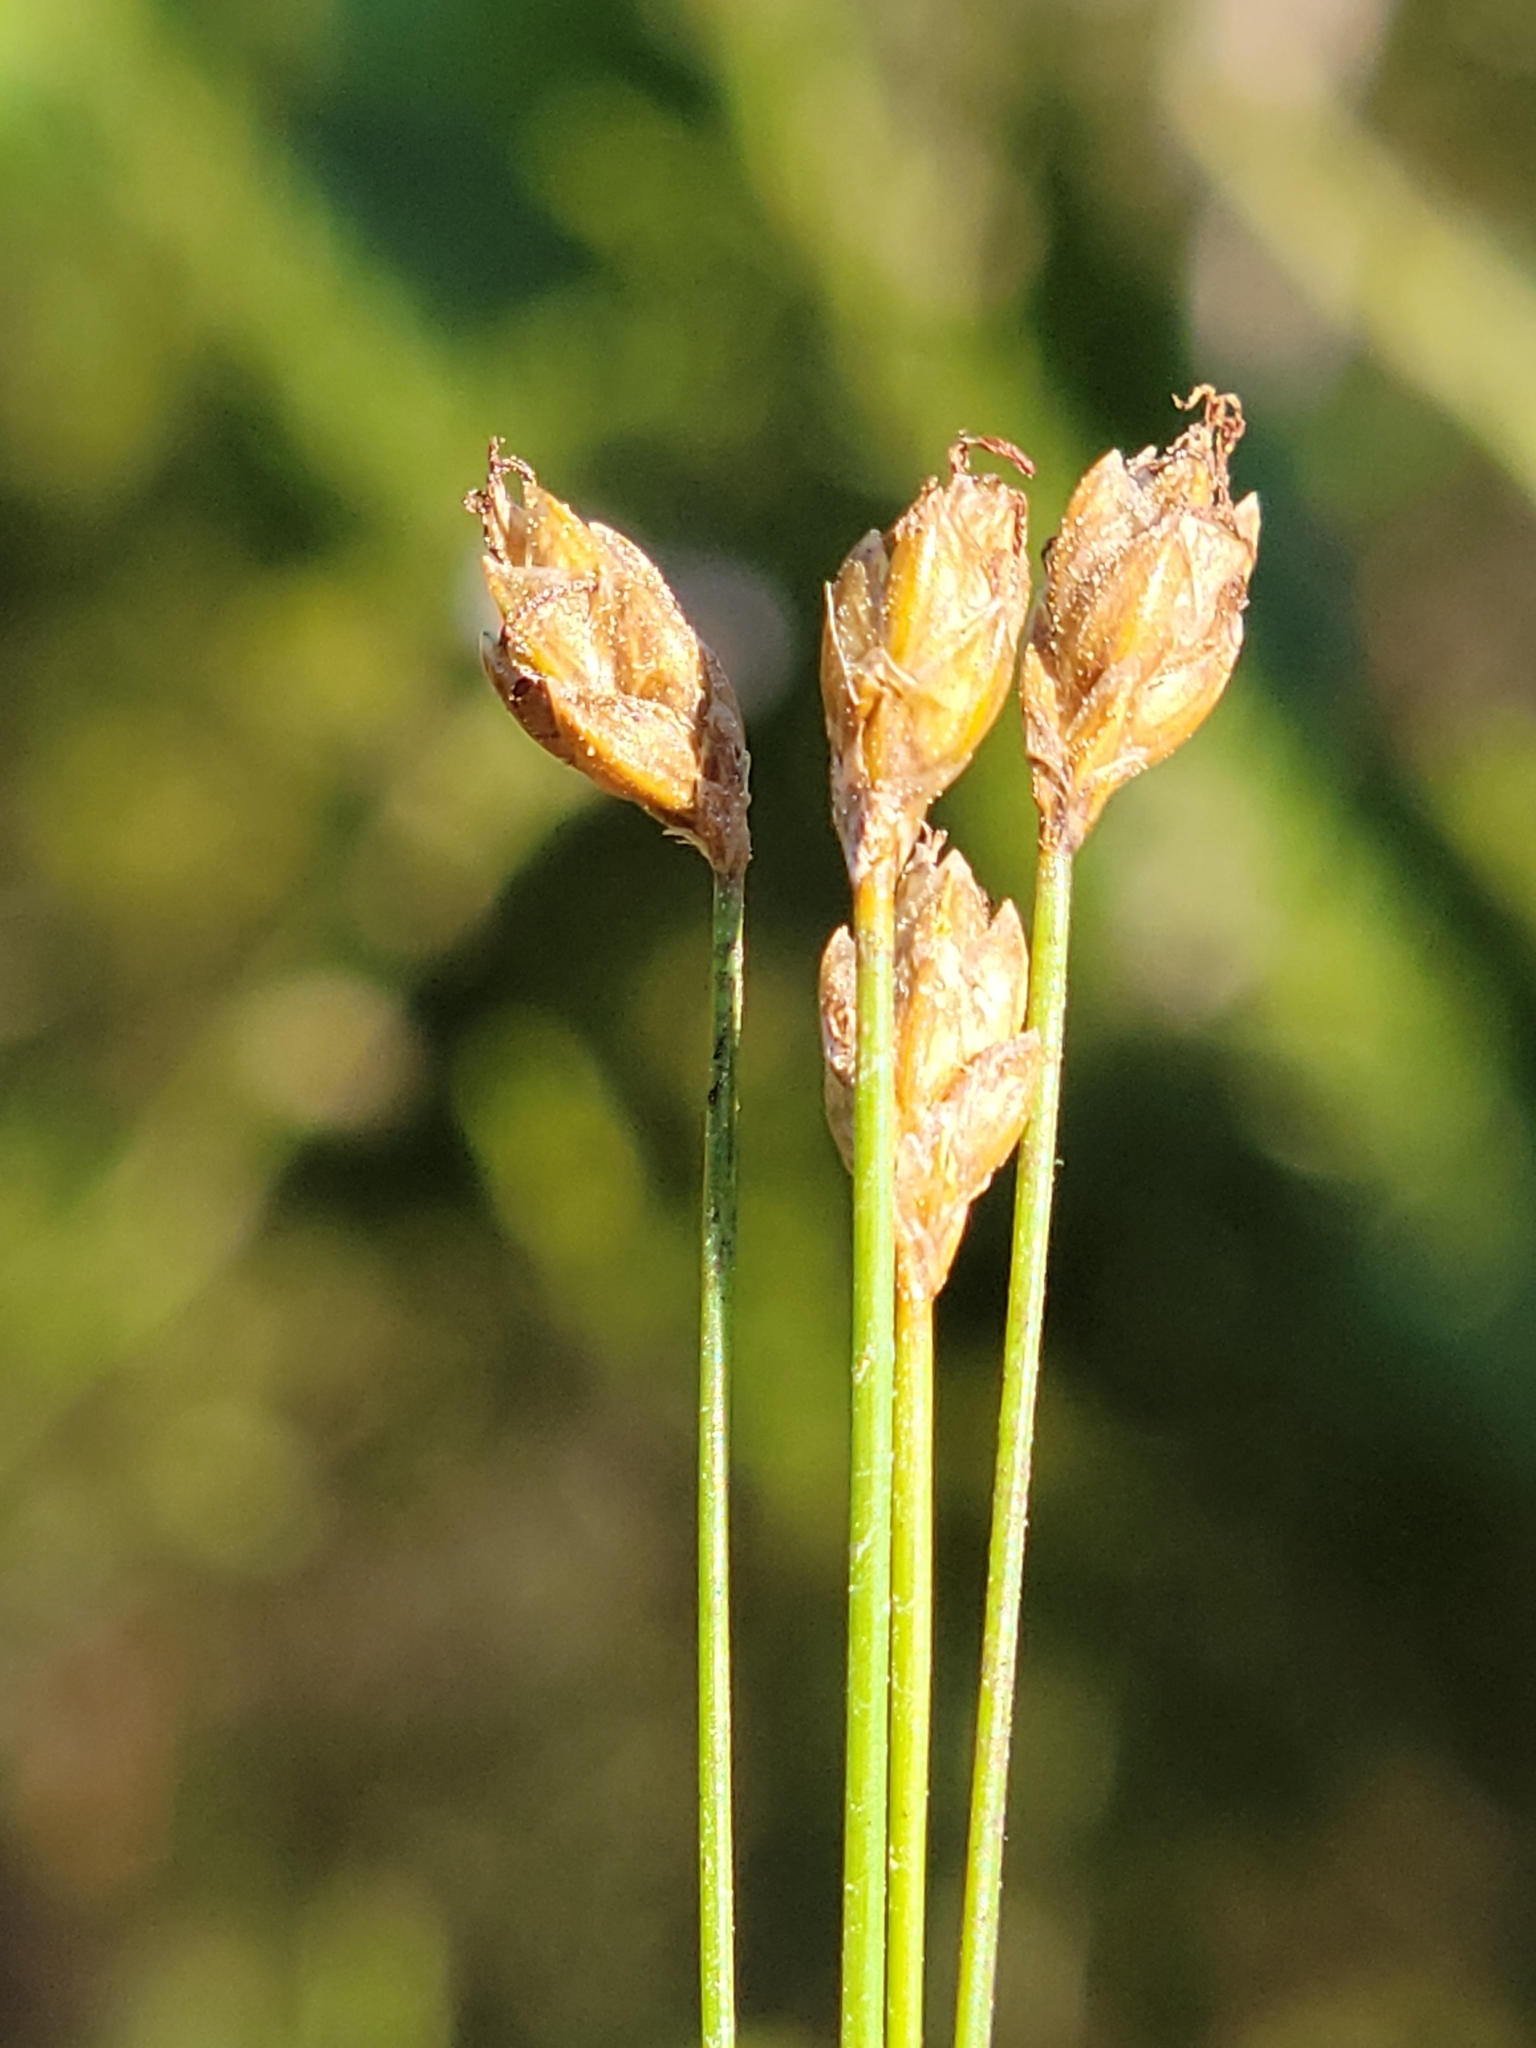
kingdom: Plantae
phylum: Tracheophyta
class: Liliopsida
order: Poales
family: Cyperaceae
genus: Eleocharis
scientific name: Eleocharis tuberculosa
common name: Cone-cup spikerush
